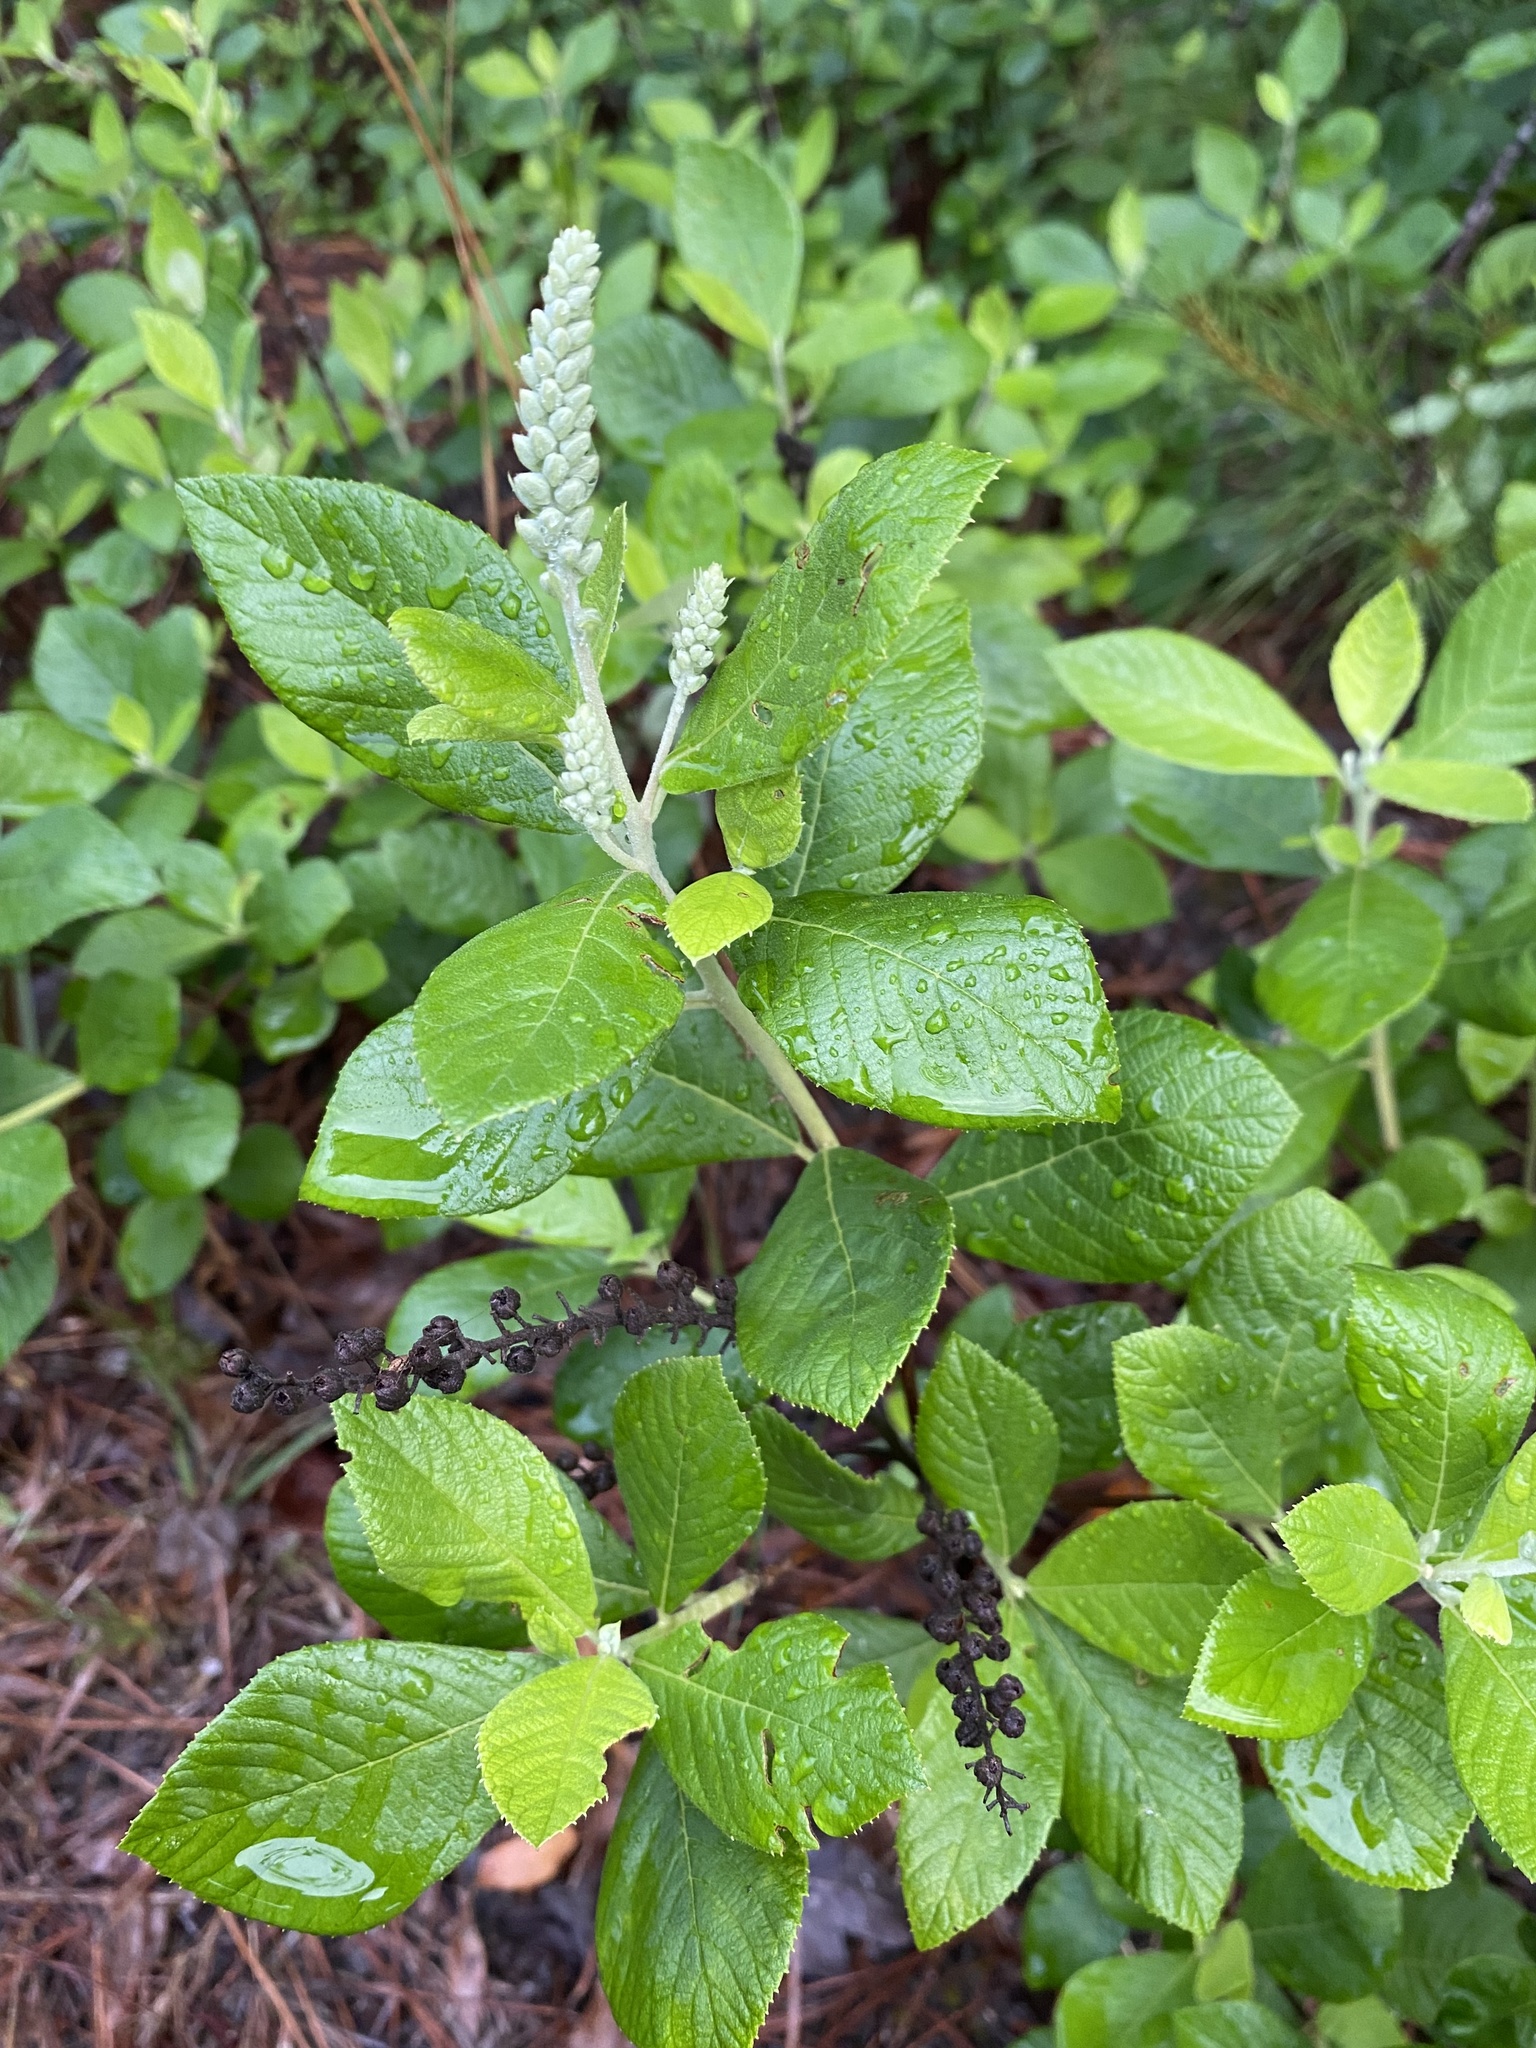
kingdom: Plantae
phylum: Tracheophyta
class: Magnoliopsida
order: Ericales
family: Clethraceae
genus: Clethra
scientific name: Clethra alnifolia
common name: Sweet pepperbush
